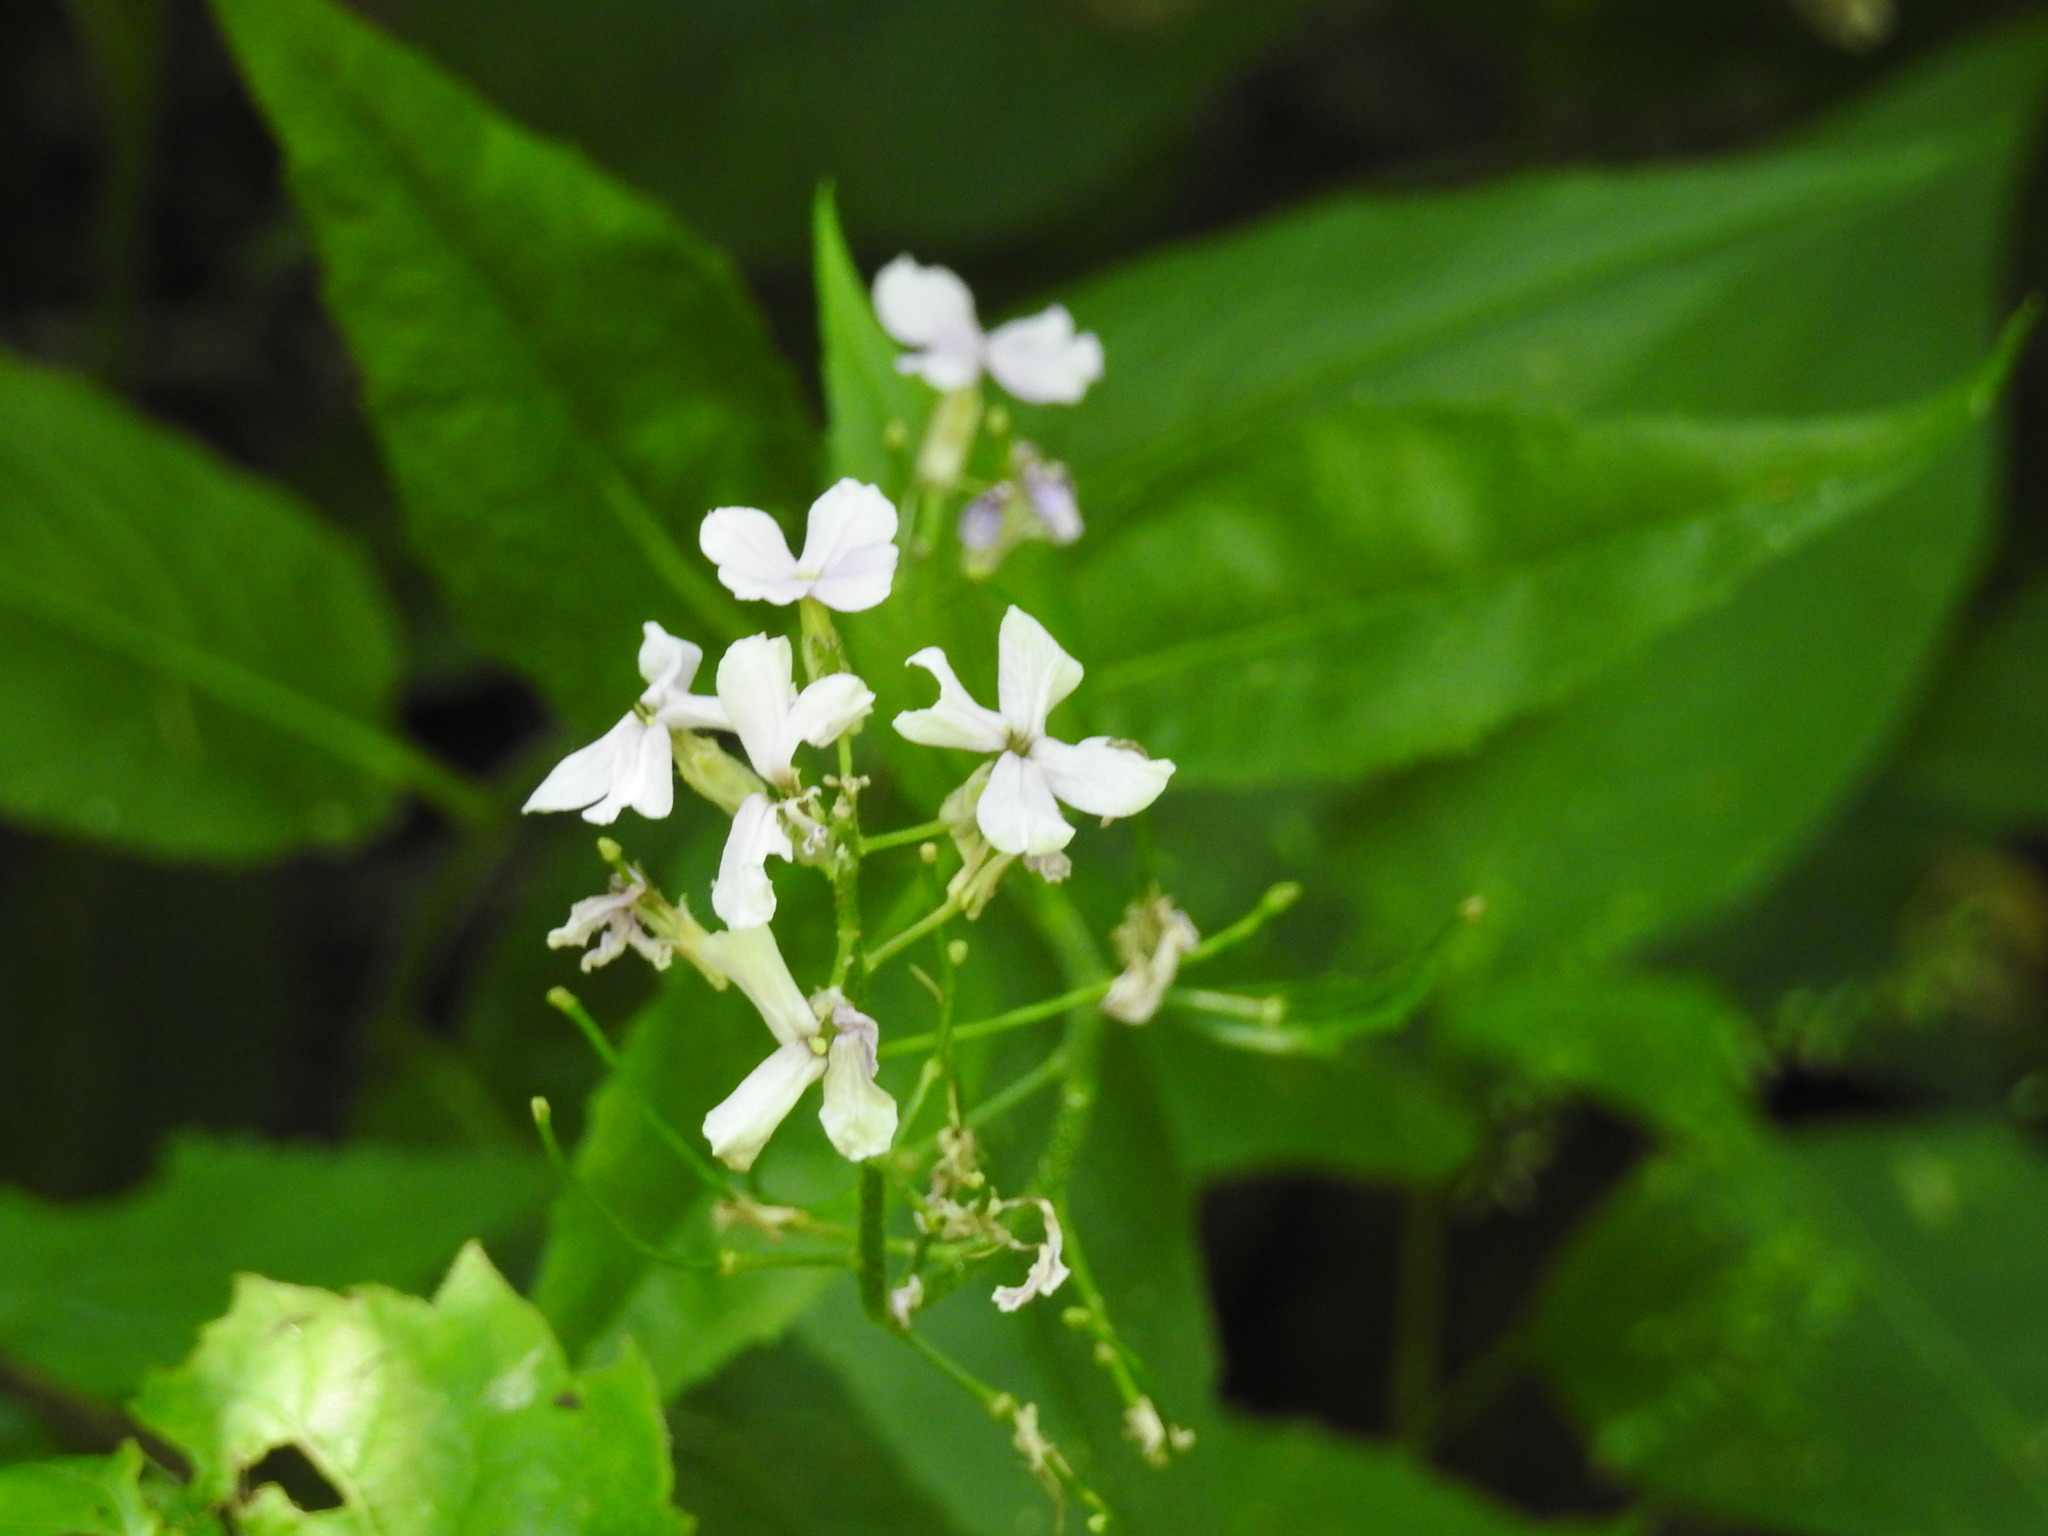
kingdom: Plantae
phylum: Tracheophyta
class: Magnoliopsida
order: Brassicales
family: Brassicaceae
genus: Hesperis
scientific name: Hesperis matronalis
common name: Dame's-violet
